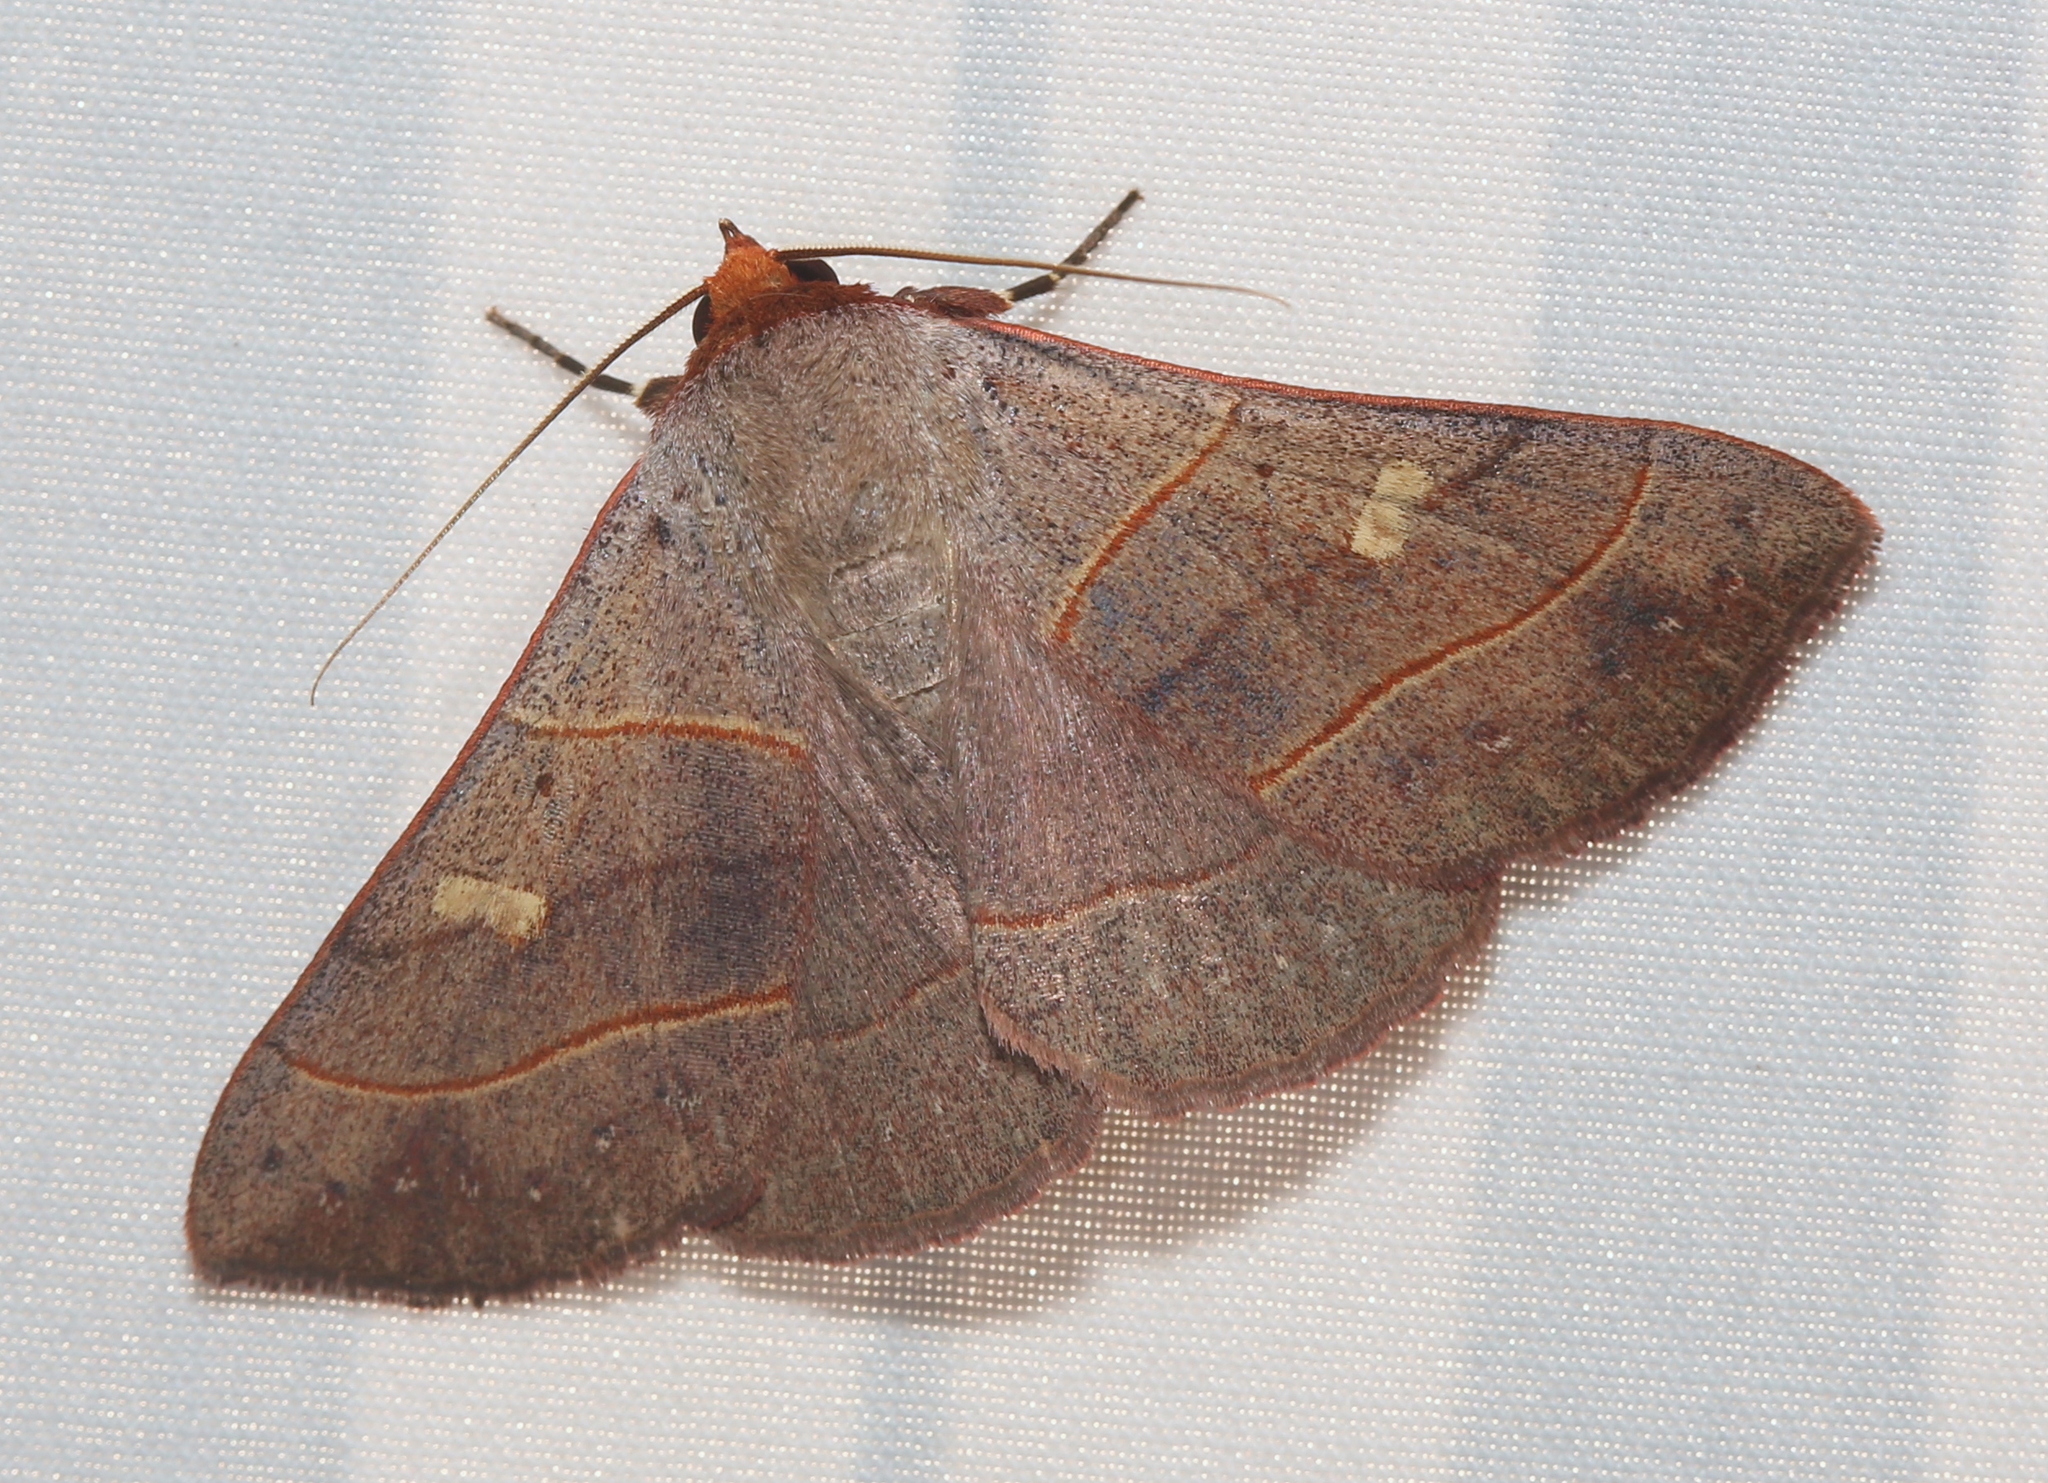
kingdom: Animalia
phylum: Arthropoda
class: Insecta
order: Lepidoptera
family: Erebidae
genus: Panopoda
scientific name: Panopoda rufimargo
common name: Red-lined panopoda moth
